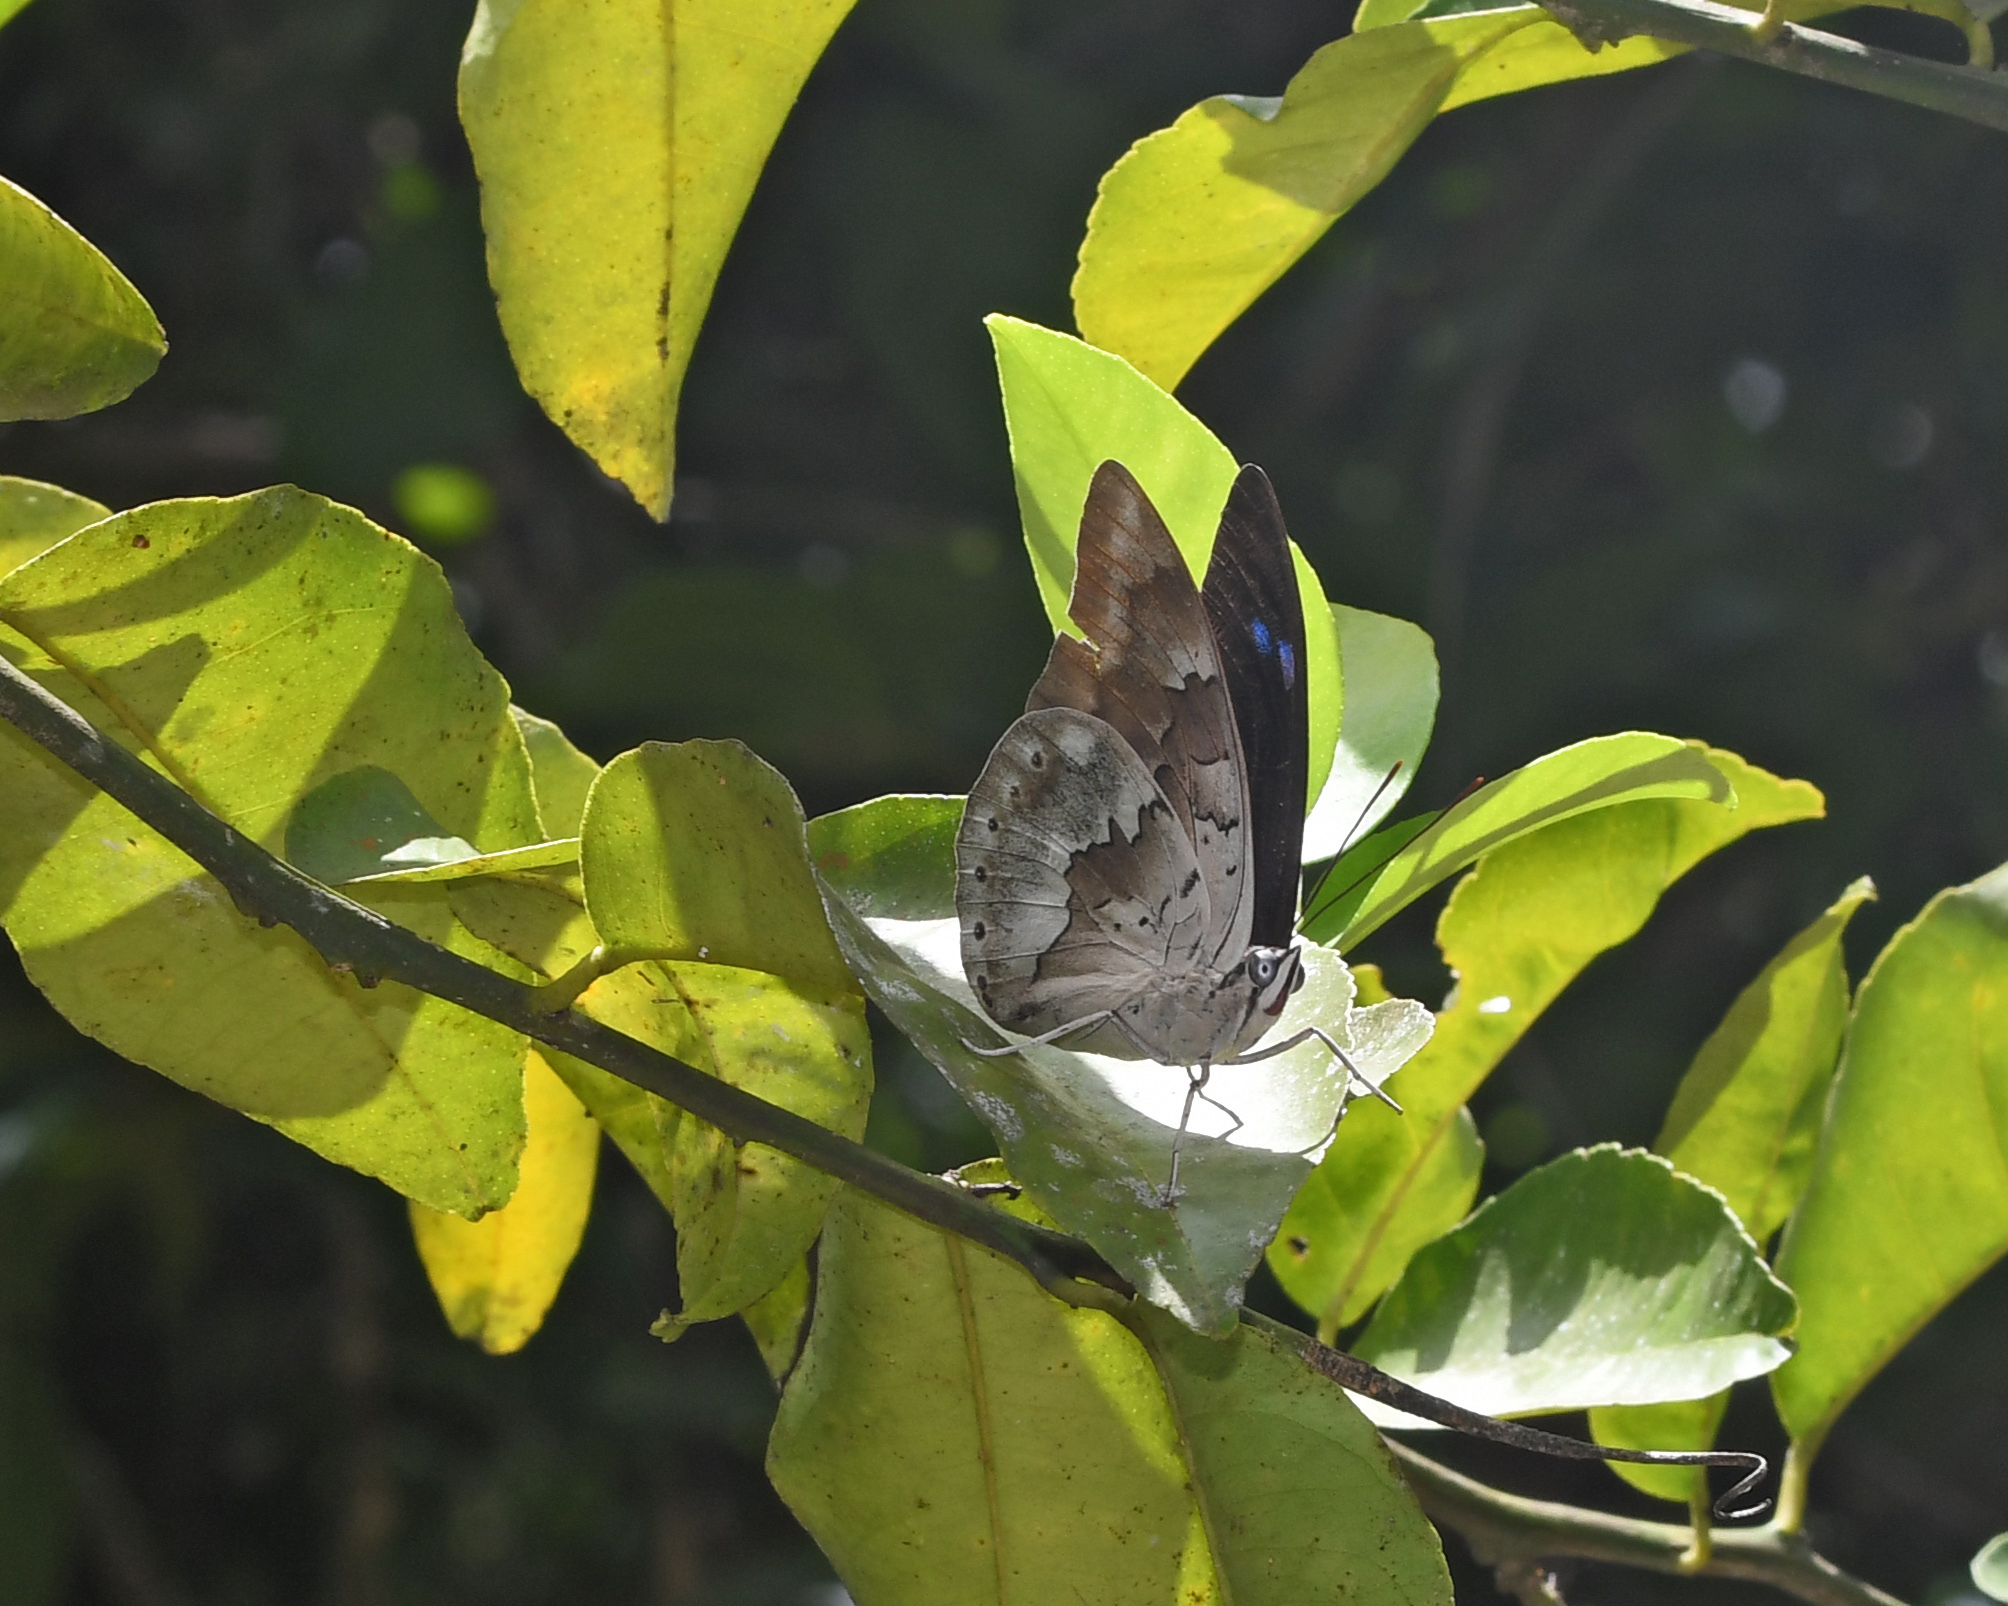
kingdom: Animalia
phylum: Arthropoda
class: Insecta
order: Lepidoptera
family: Nymphalidae
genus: Prepona
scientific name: Prepona demophoon
